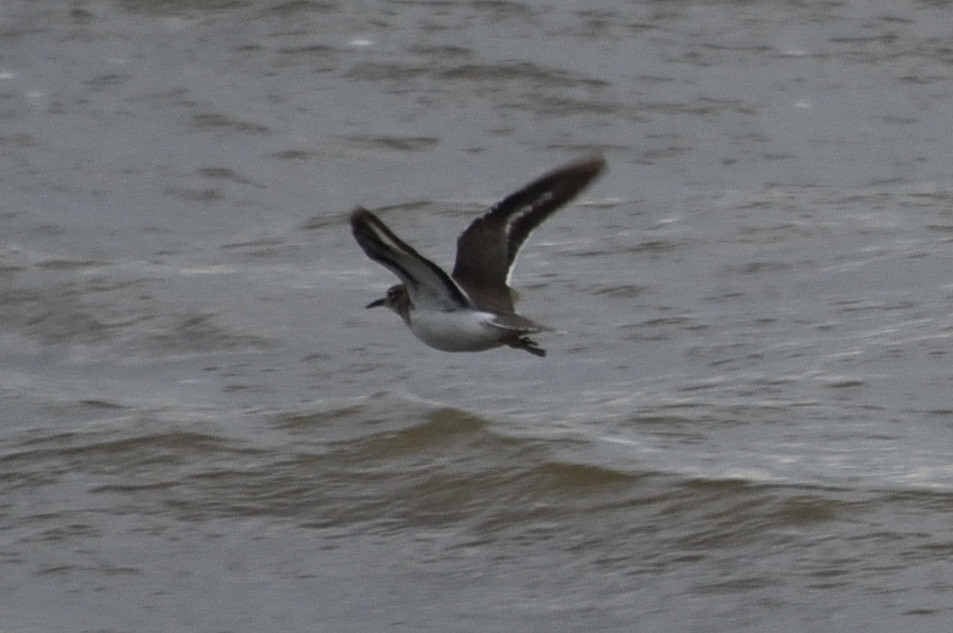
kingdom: Animalia
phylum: Chordata
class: Aves
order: Charadriiformes
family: Scolopacidae
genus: Actitis
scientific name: Actitis macularius
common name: Spotted sandpiper
